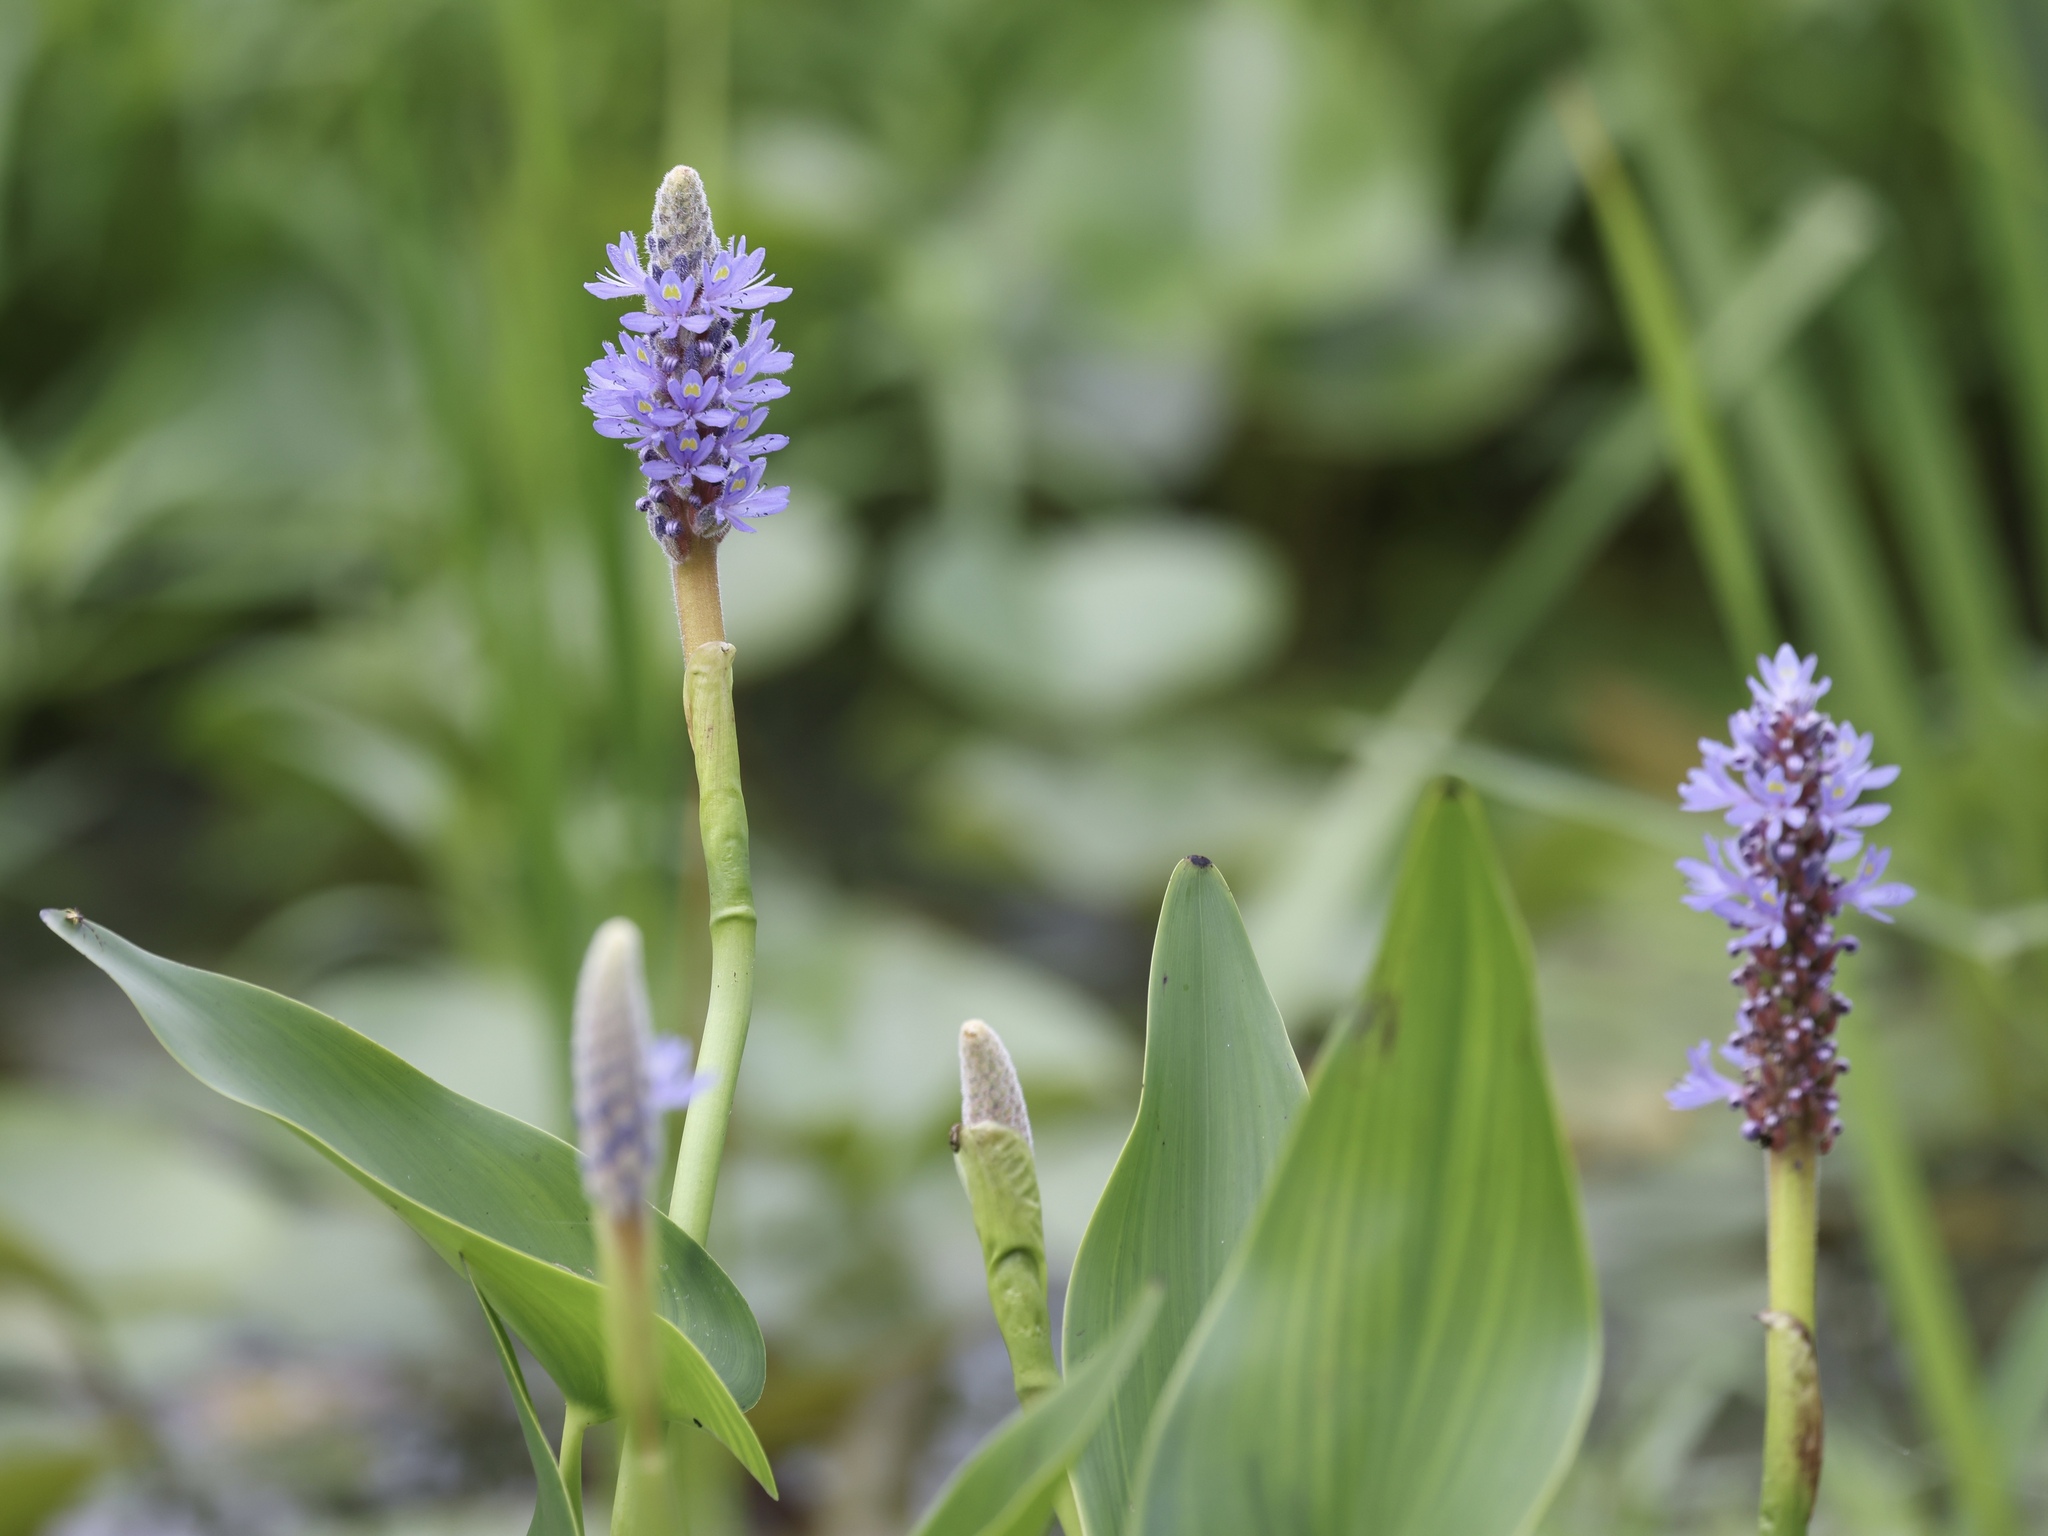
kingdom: Plantae
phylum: Tracheophyta
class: Liliopsida
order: Commelinales
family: Pontederiaceae
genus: Pontederia
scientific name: Pontederia cordata
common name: Pickerelweed
